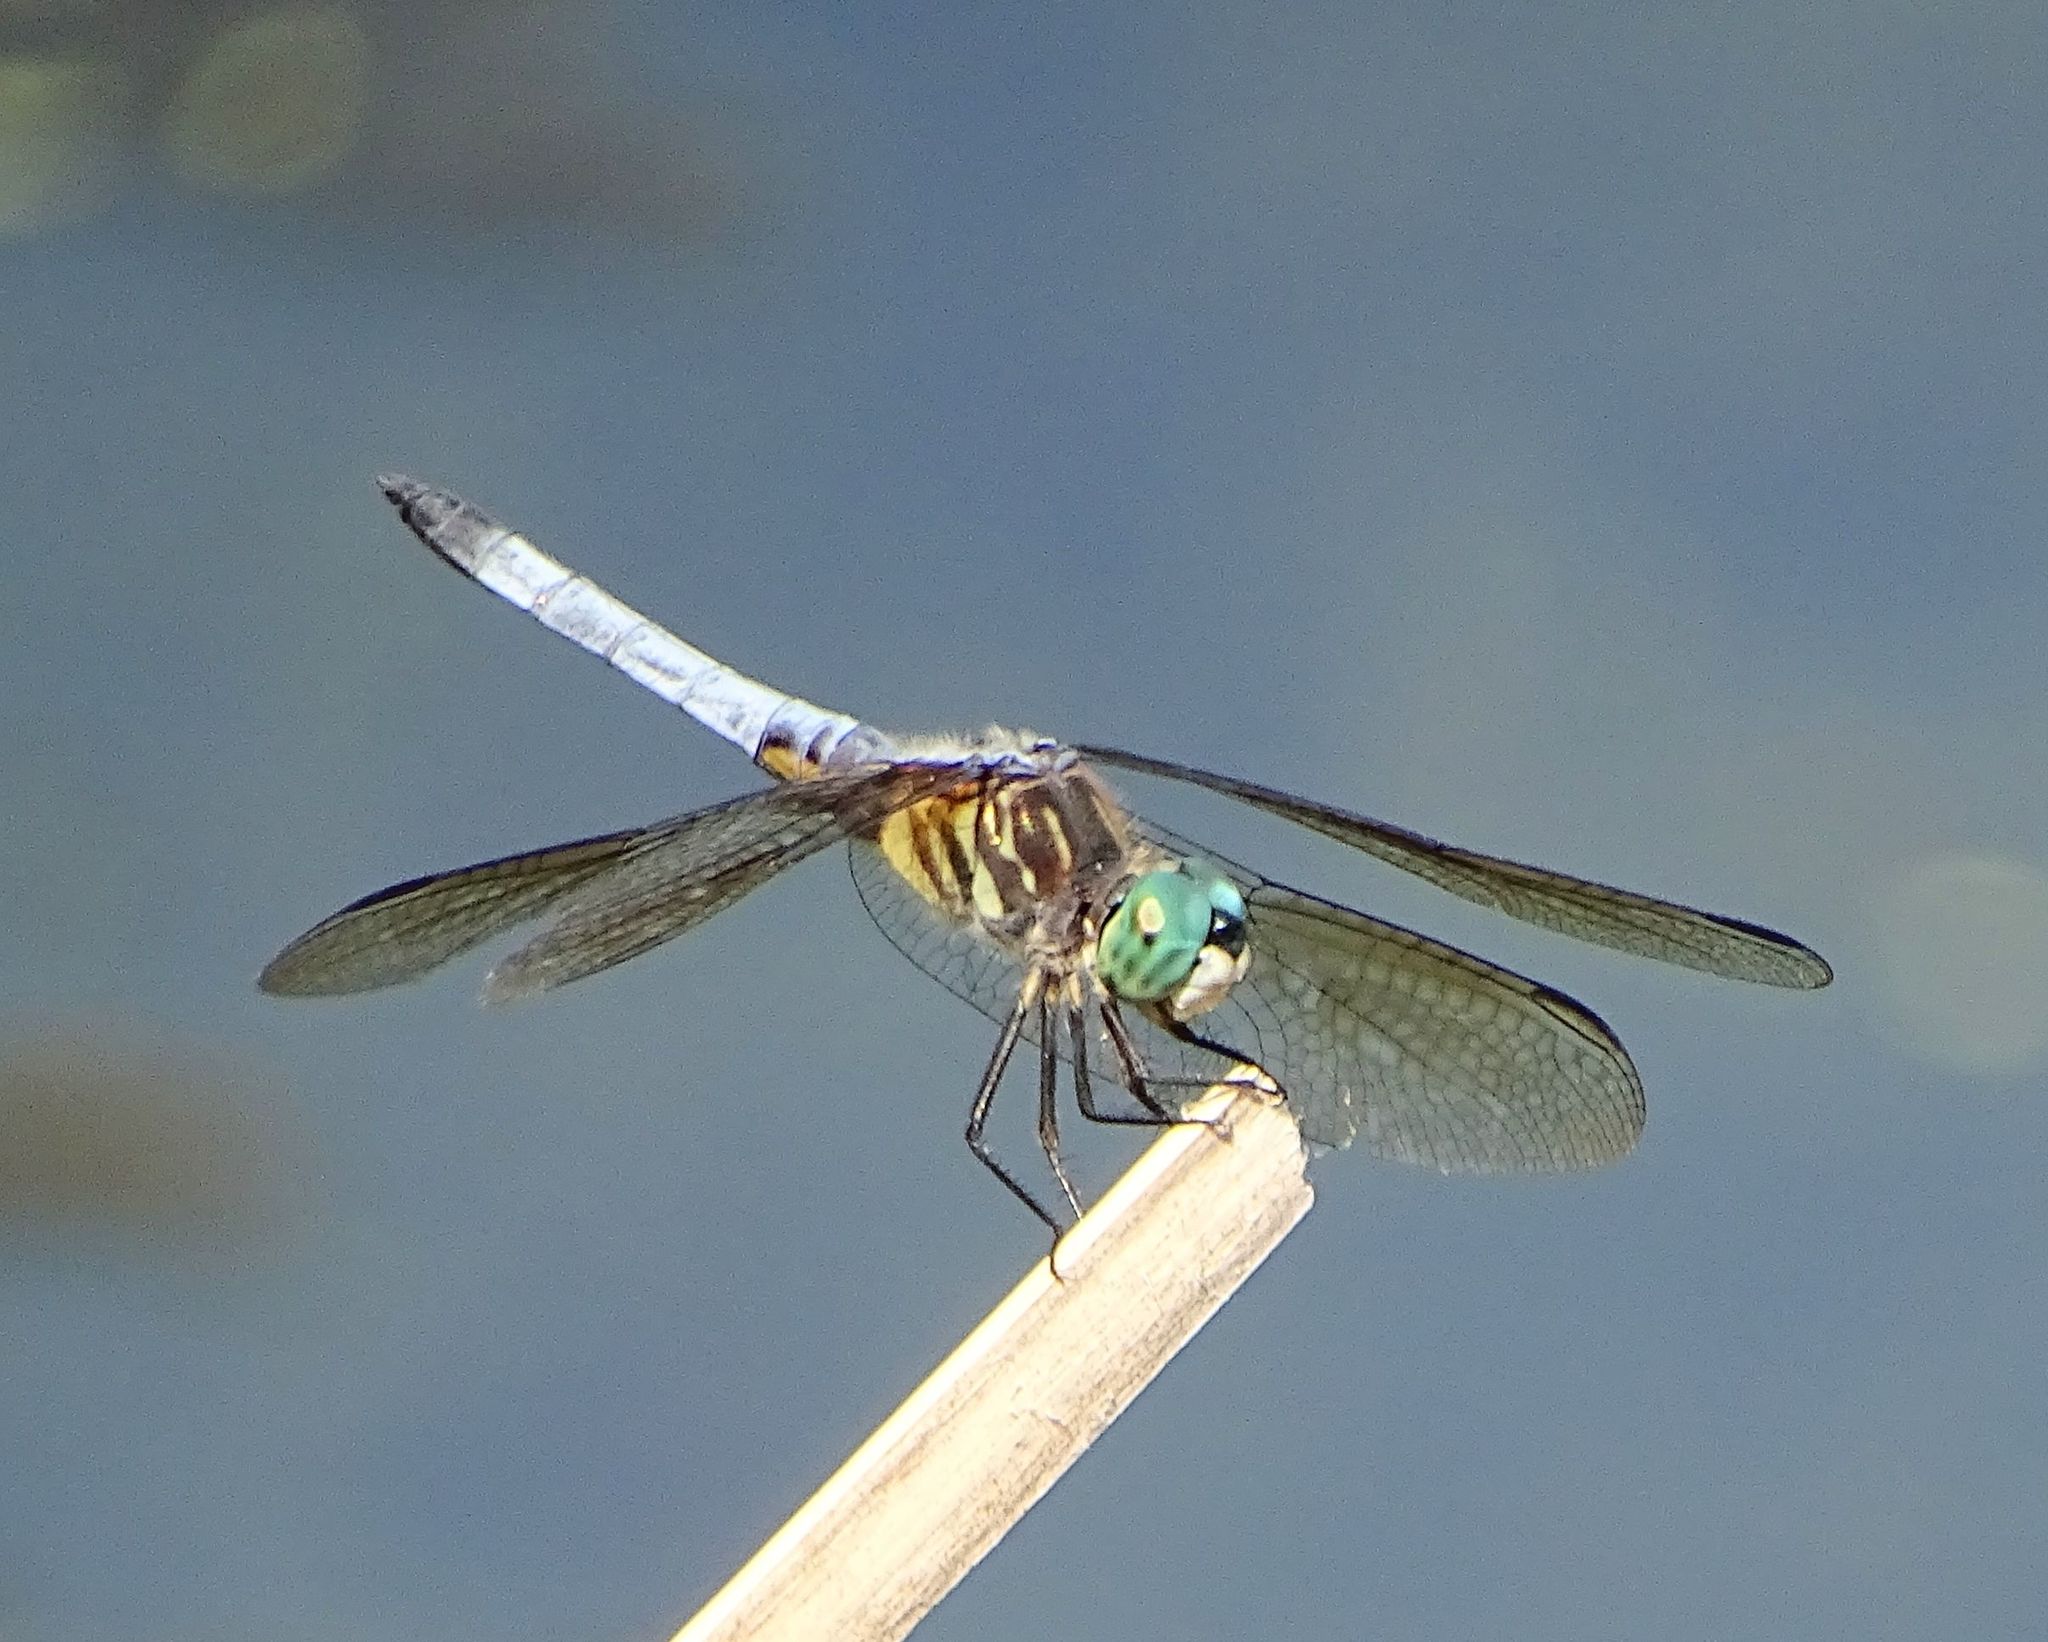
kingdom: Animalia
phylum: Arthropoda
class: Insecta
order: Odonata
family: Libellulidae
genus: Pachydiplax
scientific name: Pachydiplax longipennis
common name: Blue dasher
